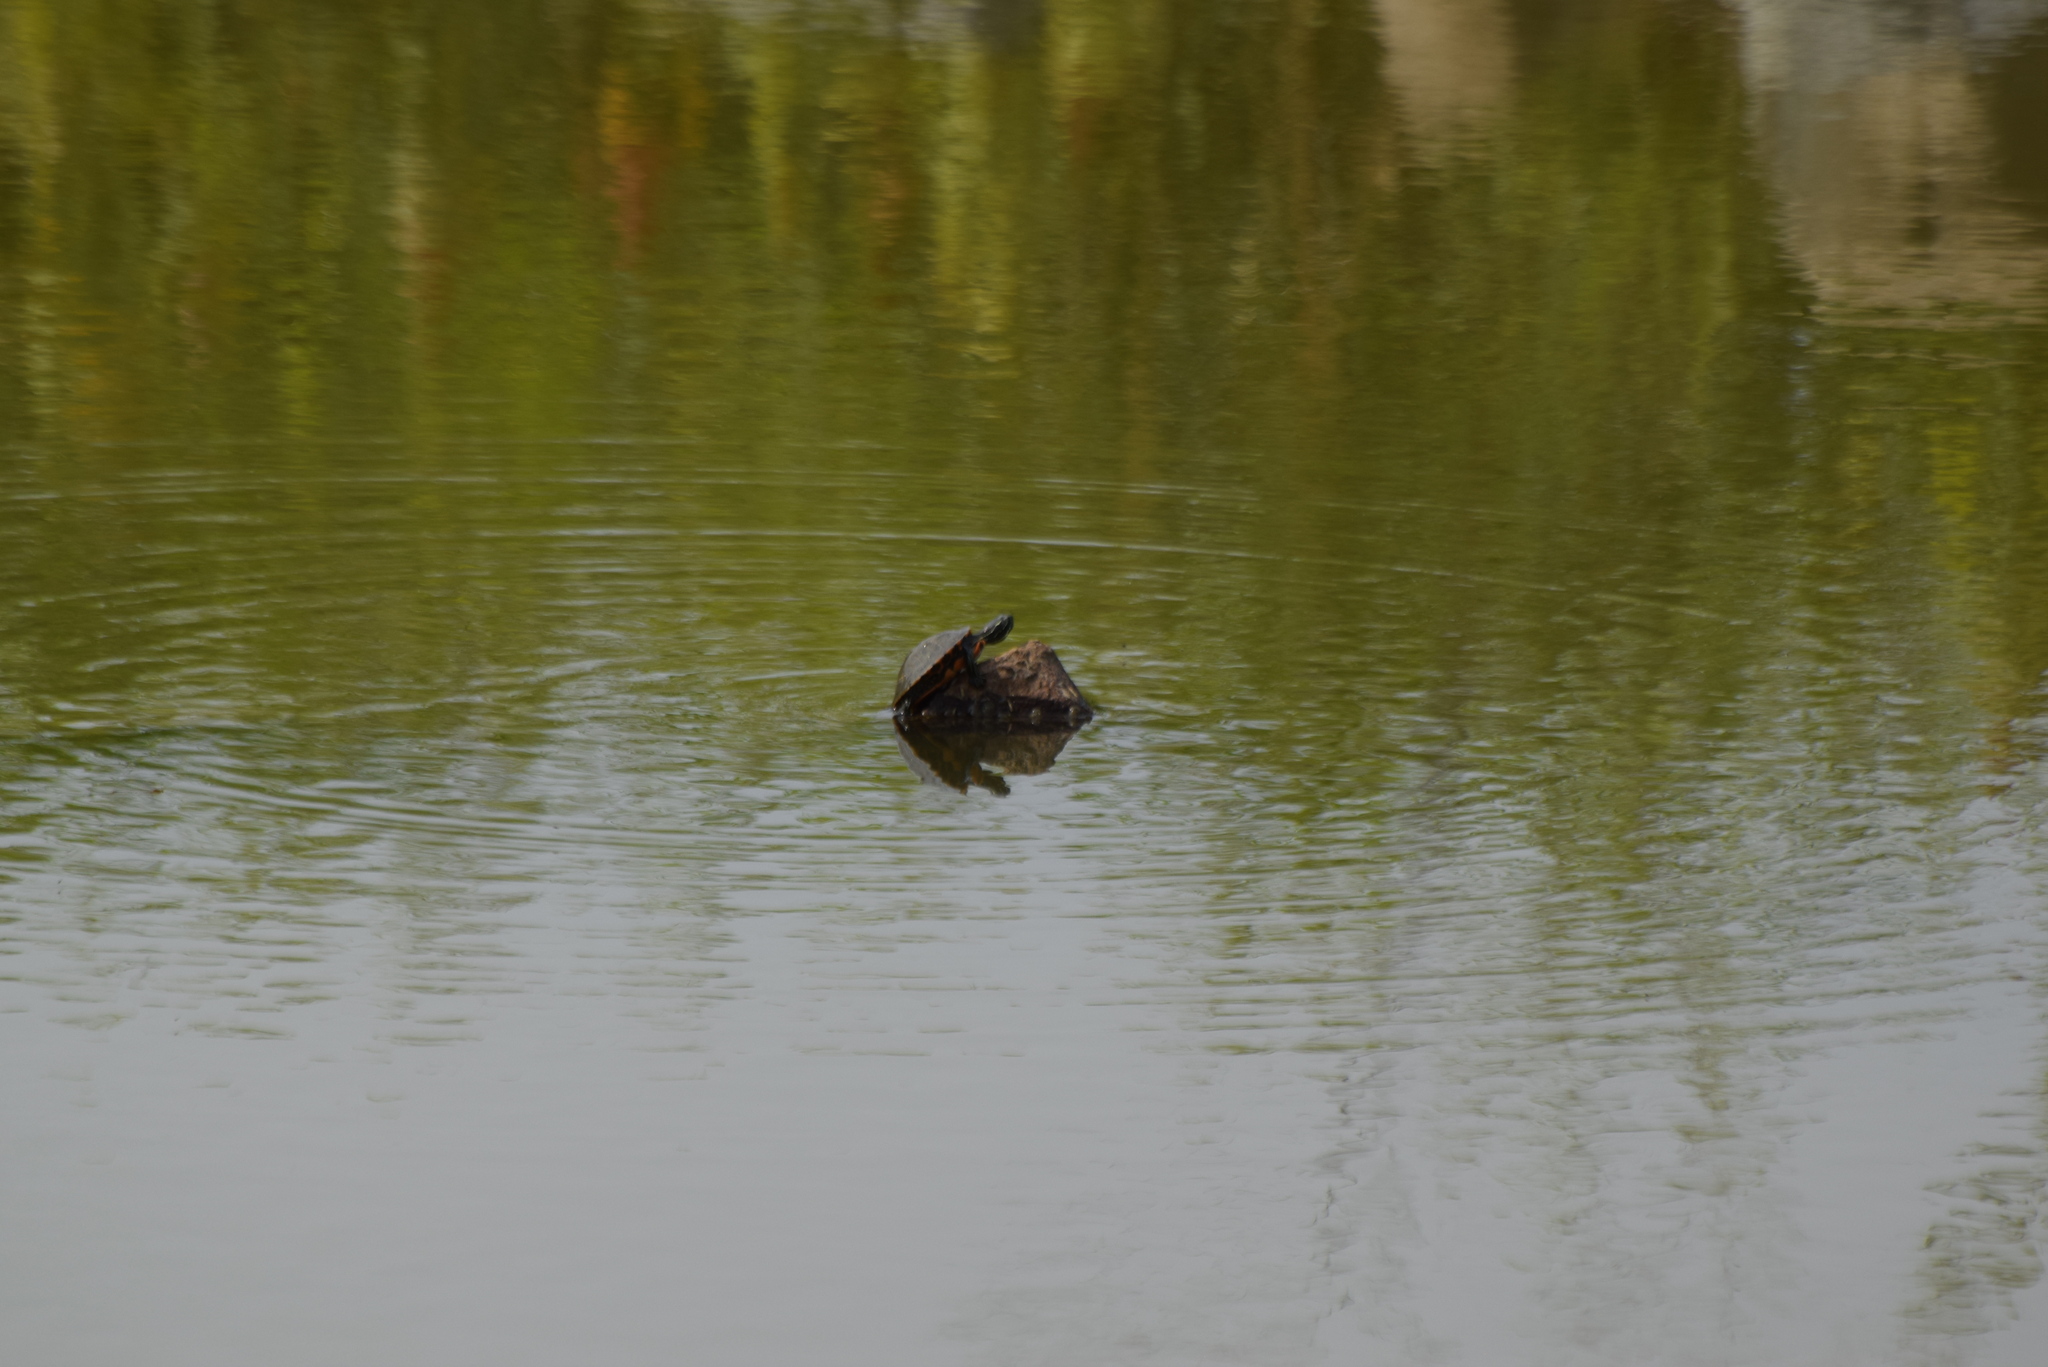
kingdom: Animalia
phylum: Chordata
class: Testudines
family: Emydidae
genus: Pseudemys
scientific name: Pseudemys rubriventris
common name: American red-bellied turtle
